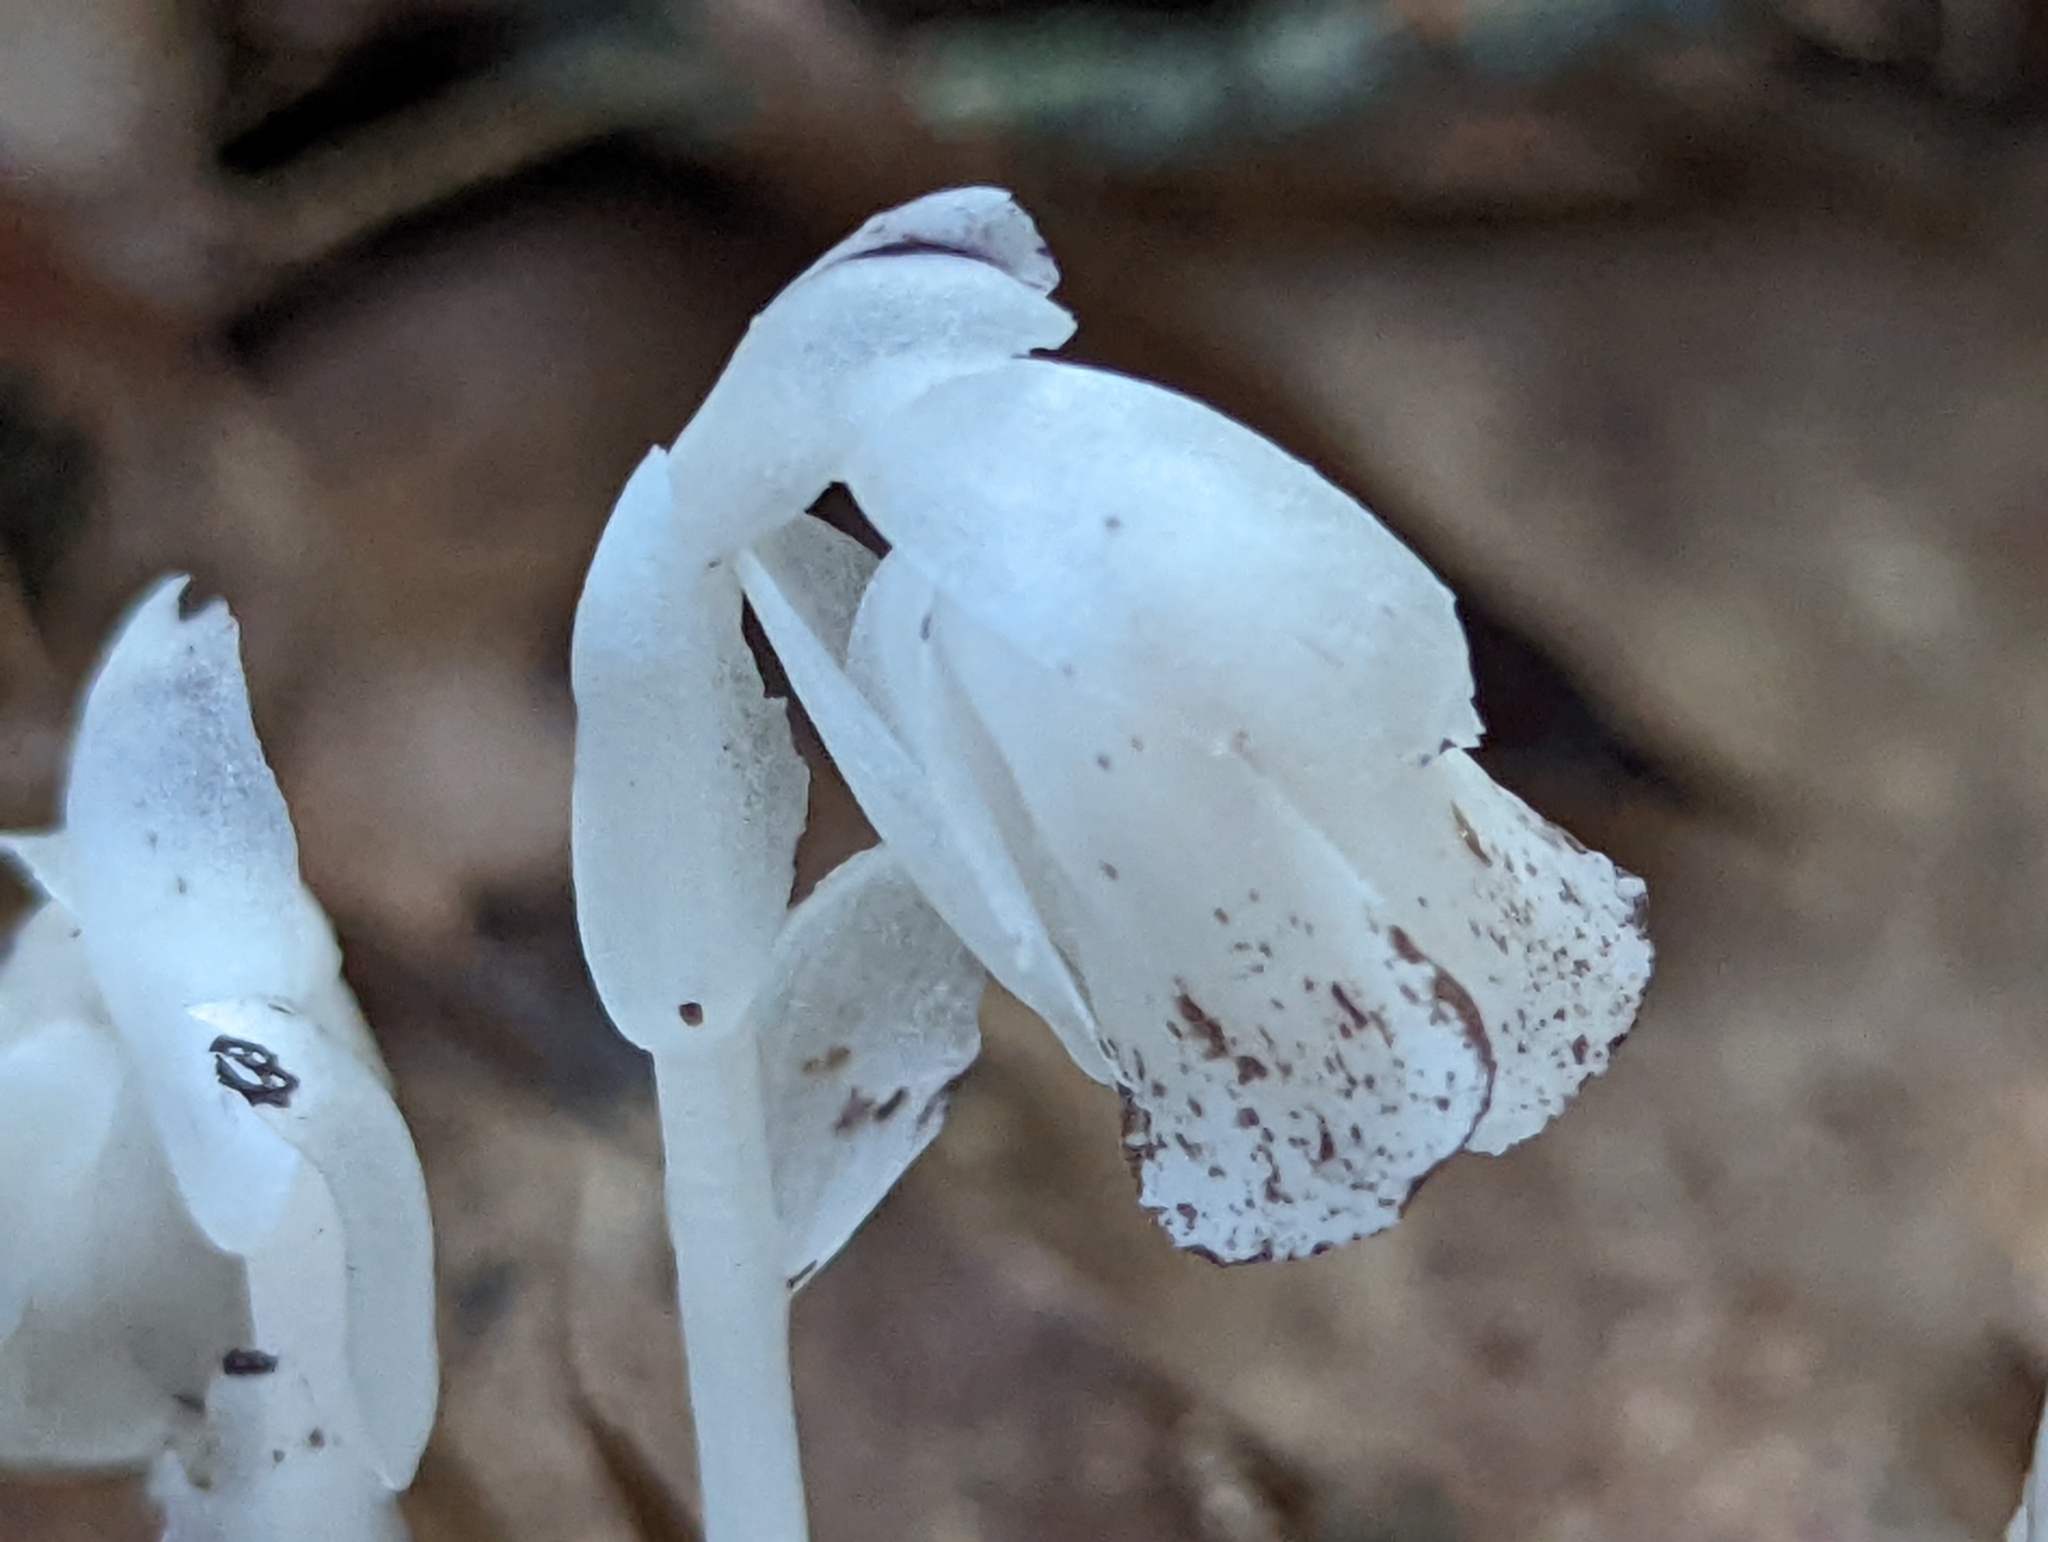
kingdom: Plantae
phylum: Tracheophyta
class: Magnoliopsida
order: Ericales
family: Ericaceae
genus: Monotropa
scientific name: Monotropa uniflora
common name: Convulsion root
